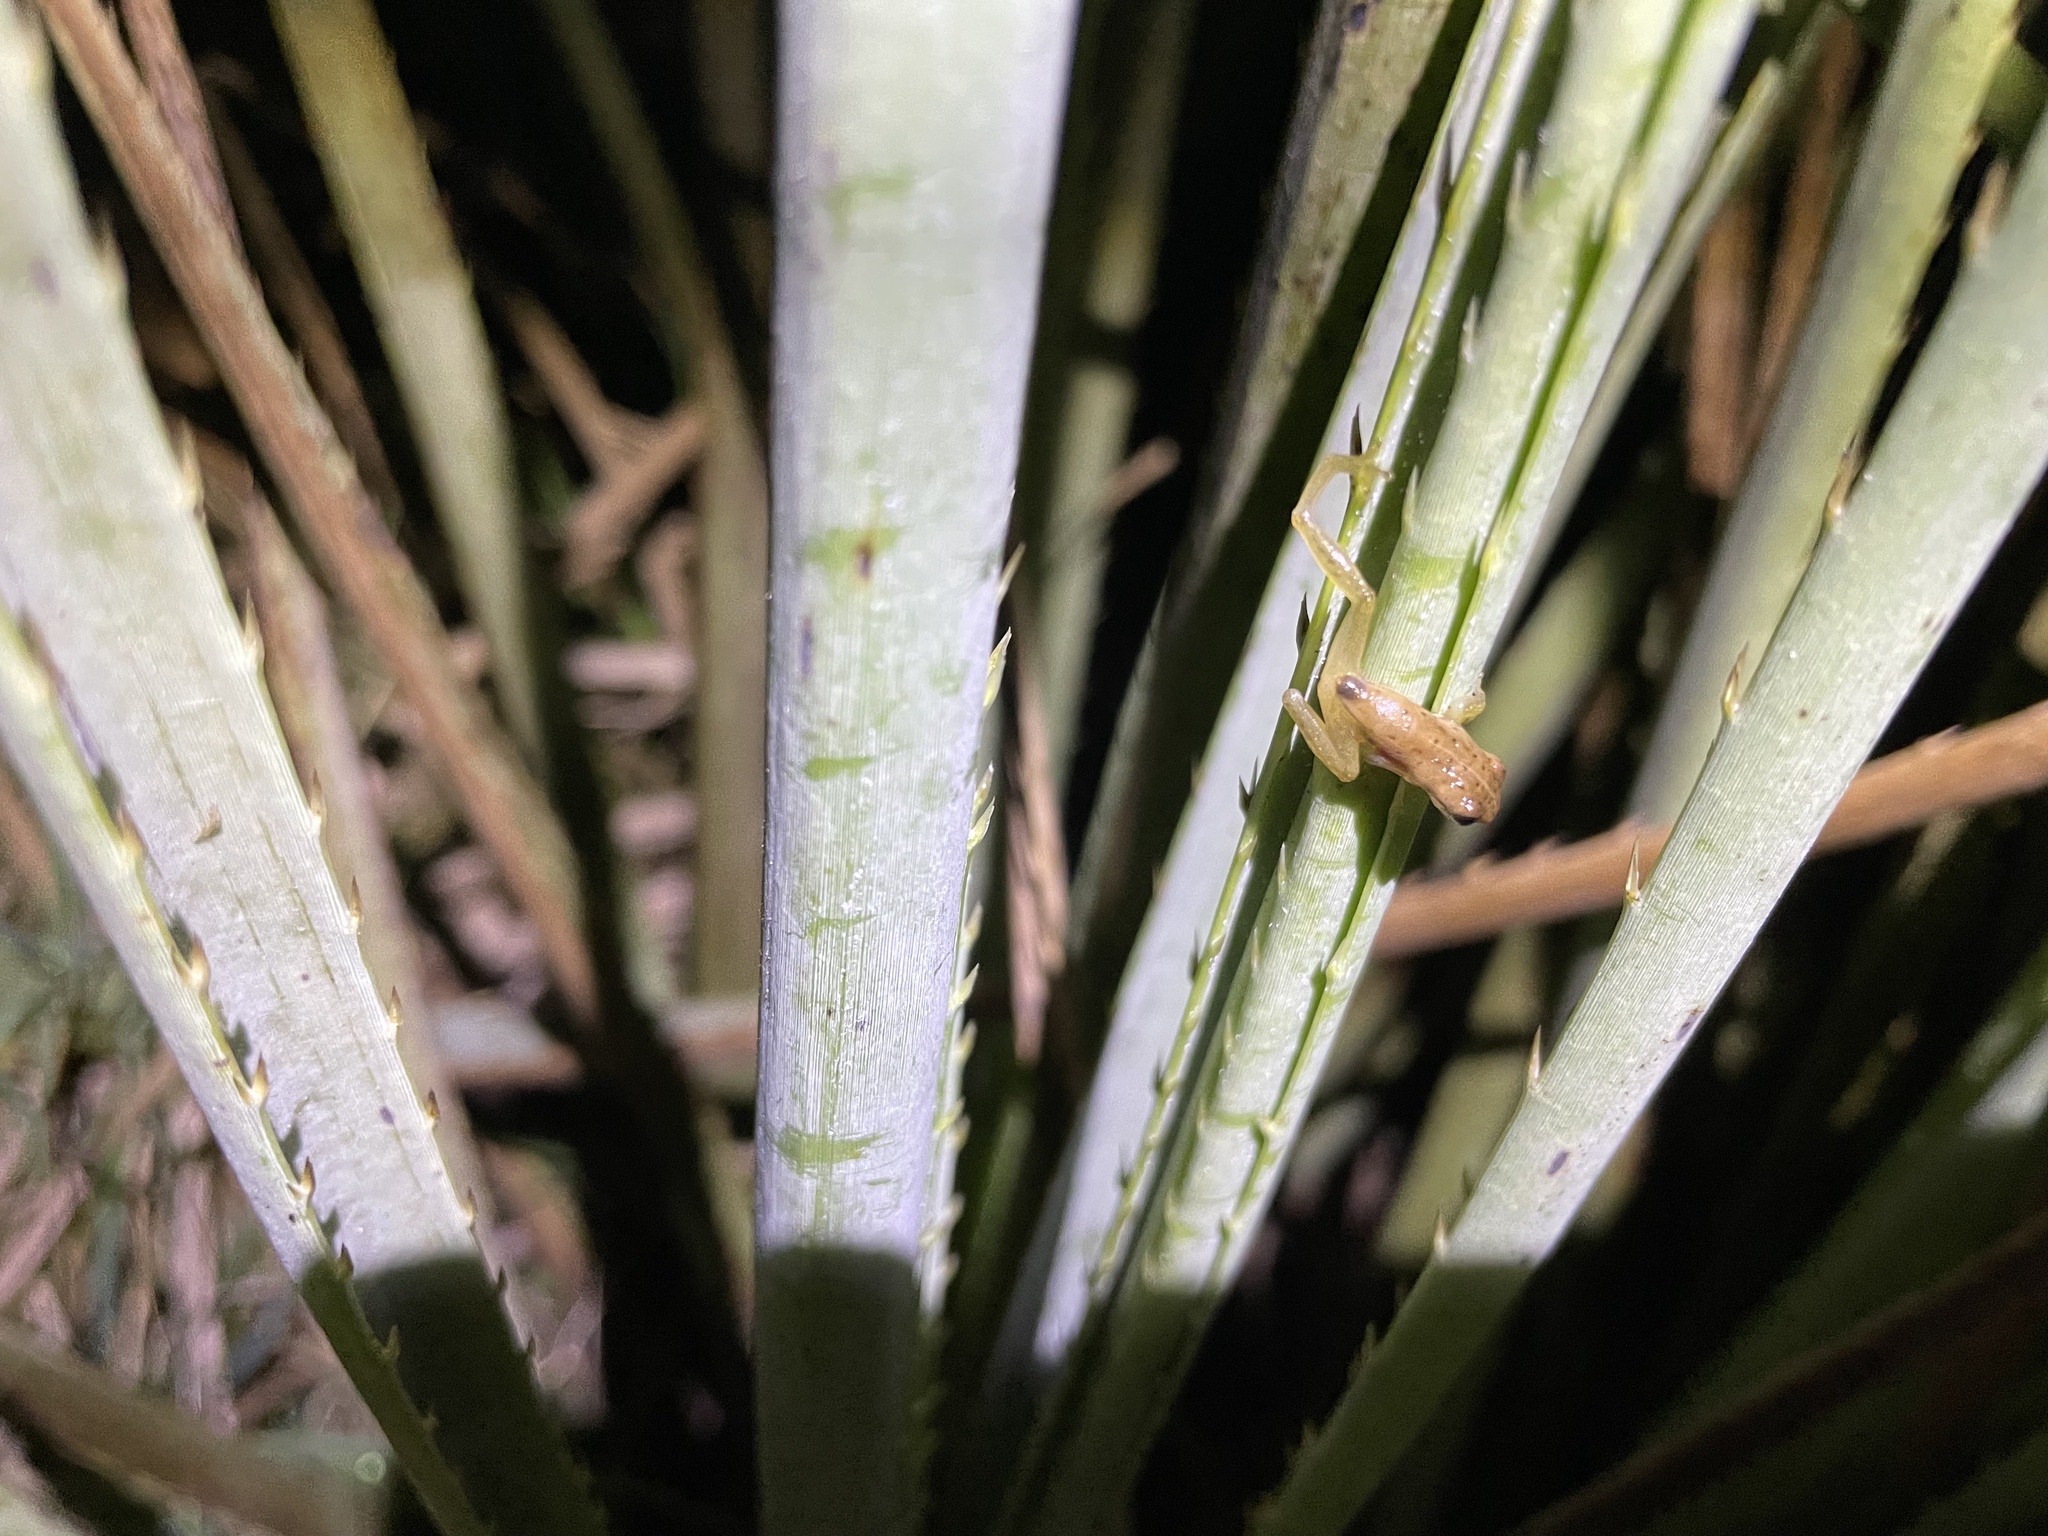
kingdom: Animalia
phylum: Chordata
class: Amphibia
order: Anura
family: Hylidae
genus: Dendropsophus
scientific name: Dendropsophus sanborni
